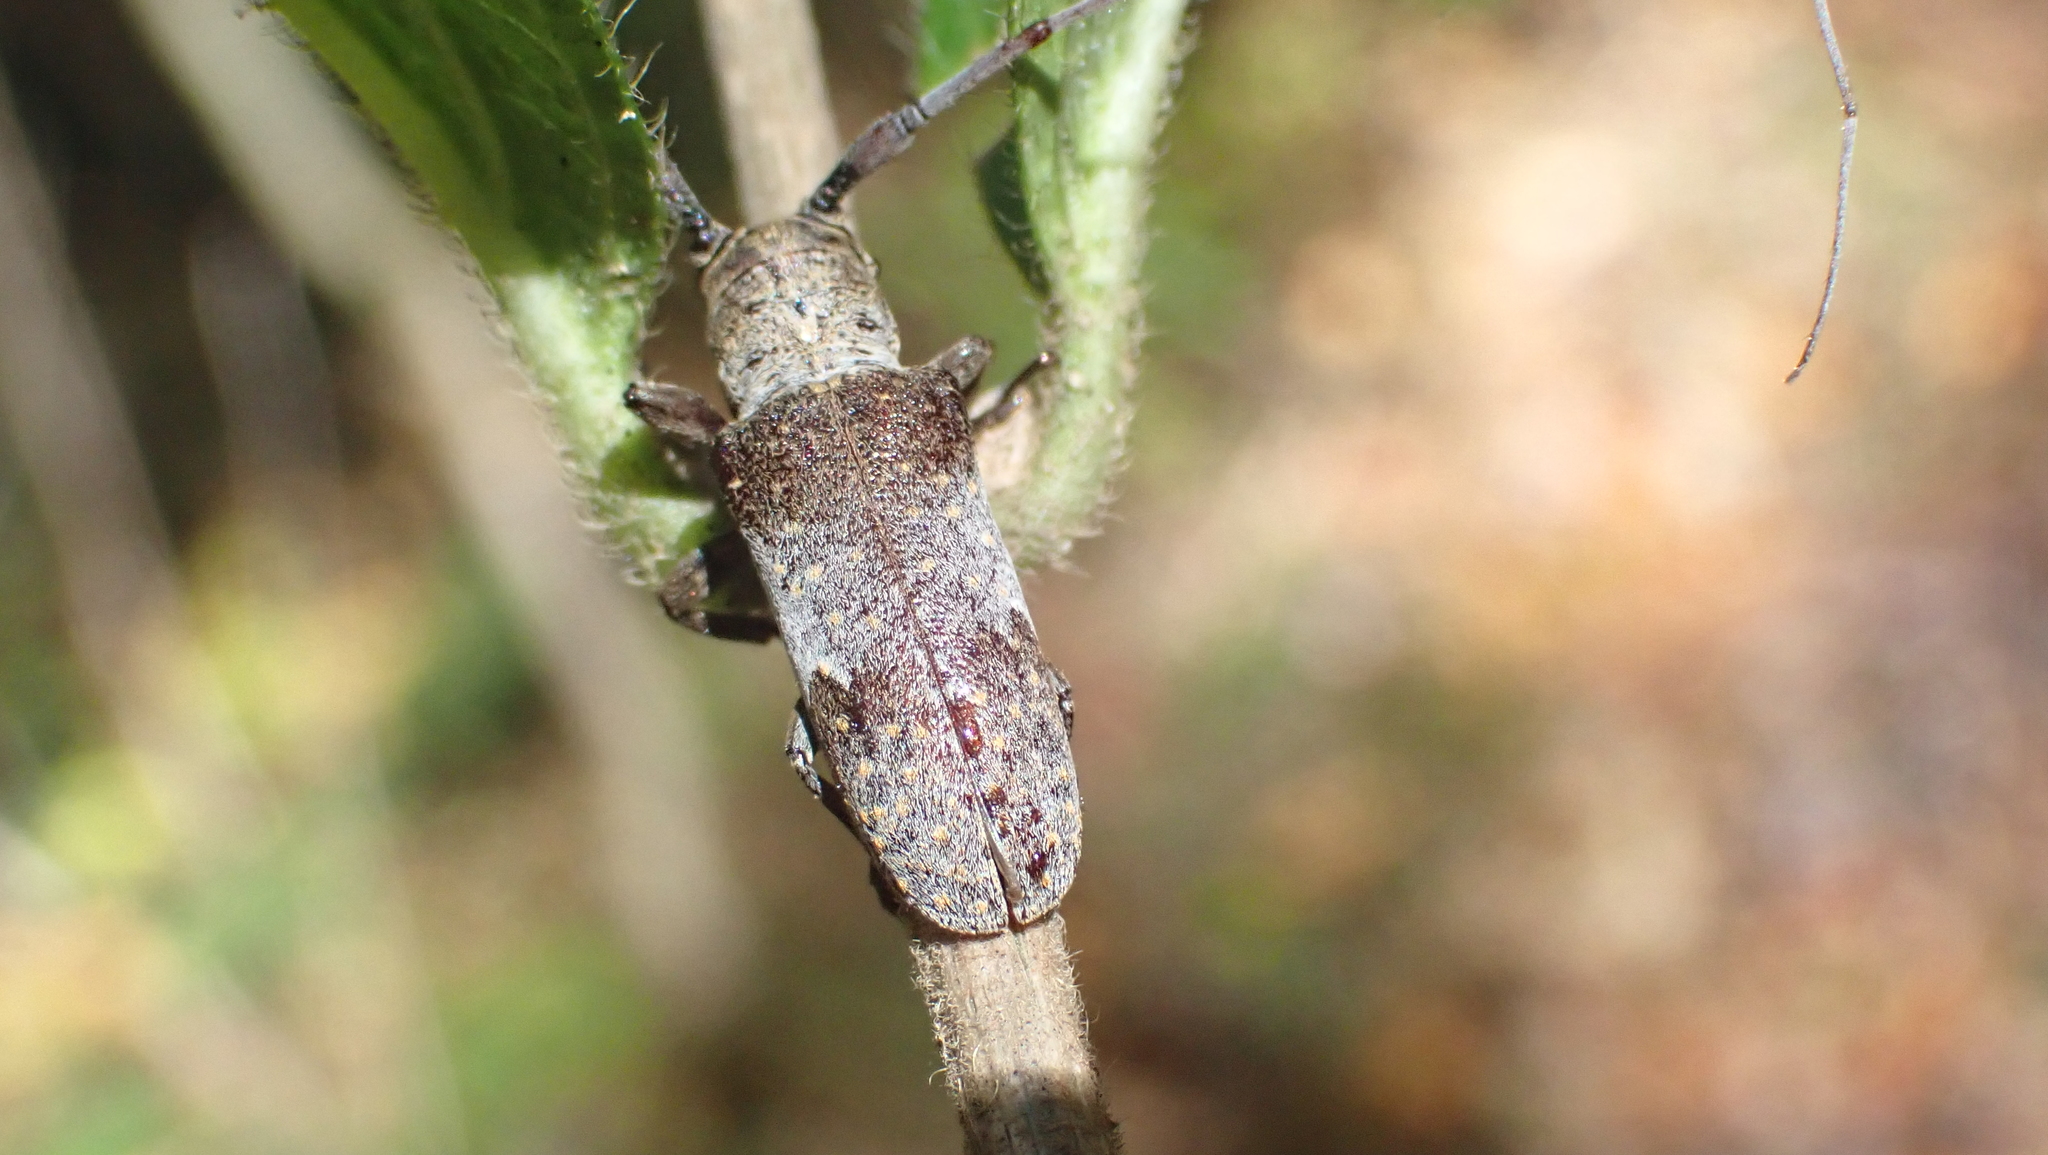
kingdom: Animalia
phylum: Arthropoda
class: Insecta
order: Coleoptera
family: Cerambycidae
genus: Oncideres
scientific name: Oncideres cingulata
